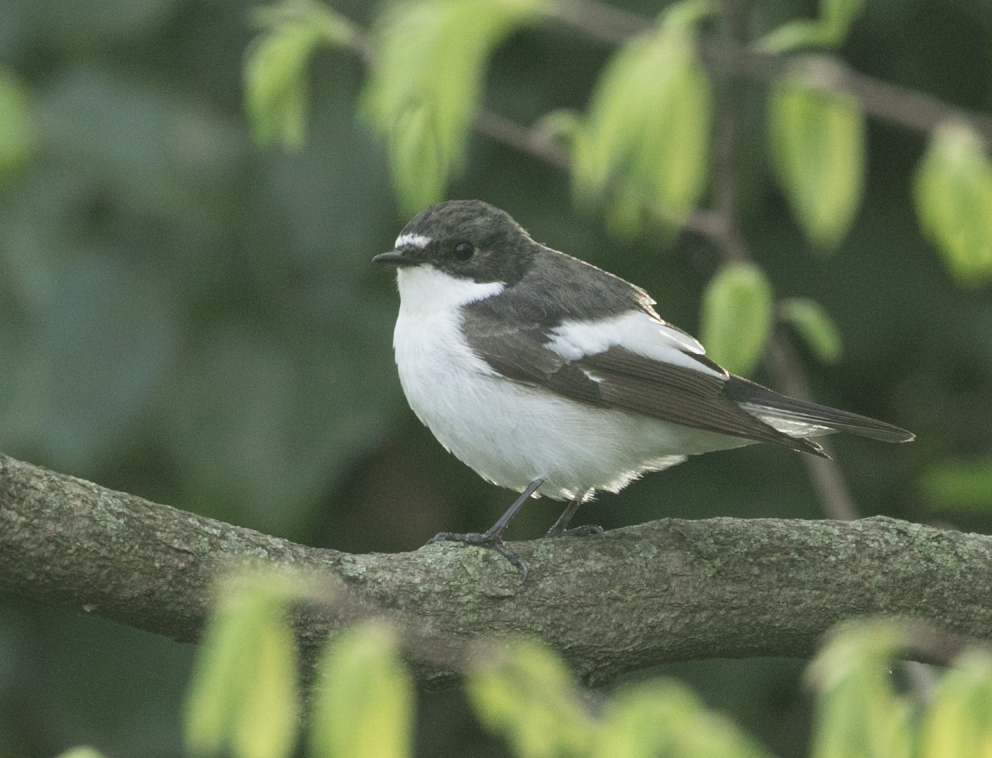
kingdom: Animalia
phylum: Chordata
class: Aves
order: Passeriformes
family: Muscicapidae
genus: Ficedula
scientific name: Ficedula hypoleuca
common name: European pied flycatcher
